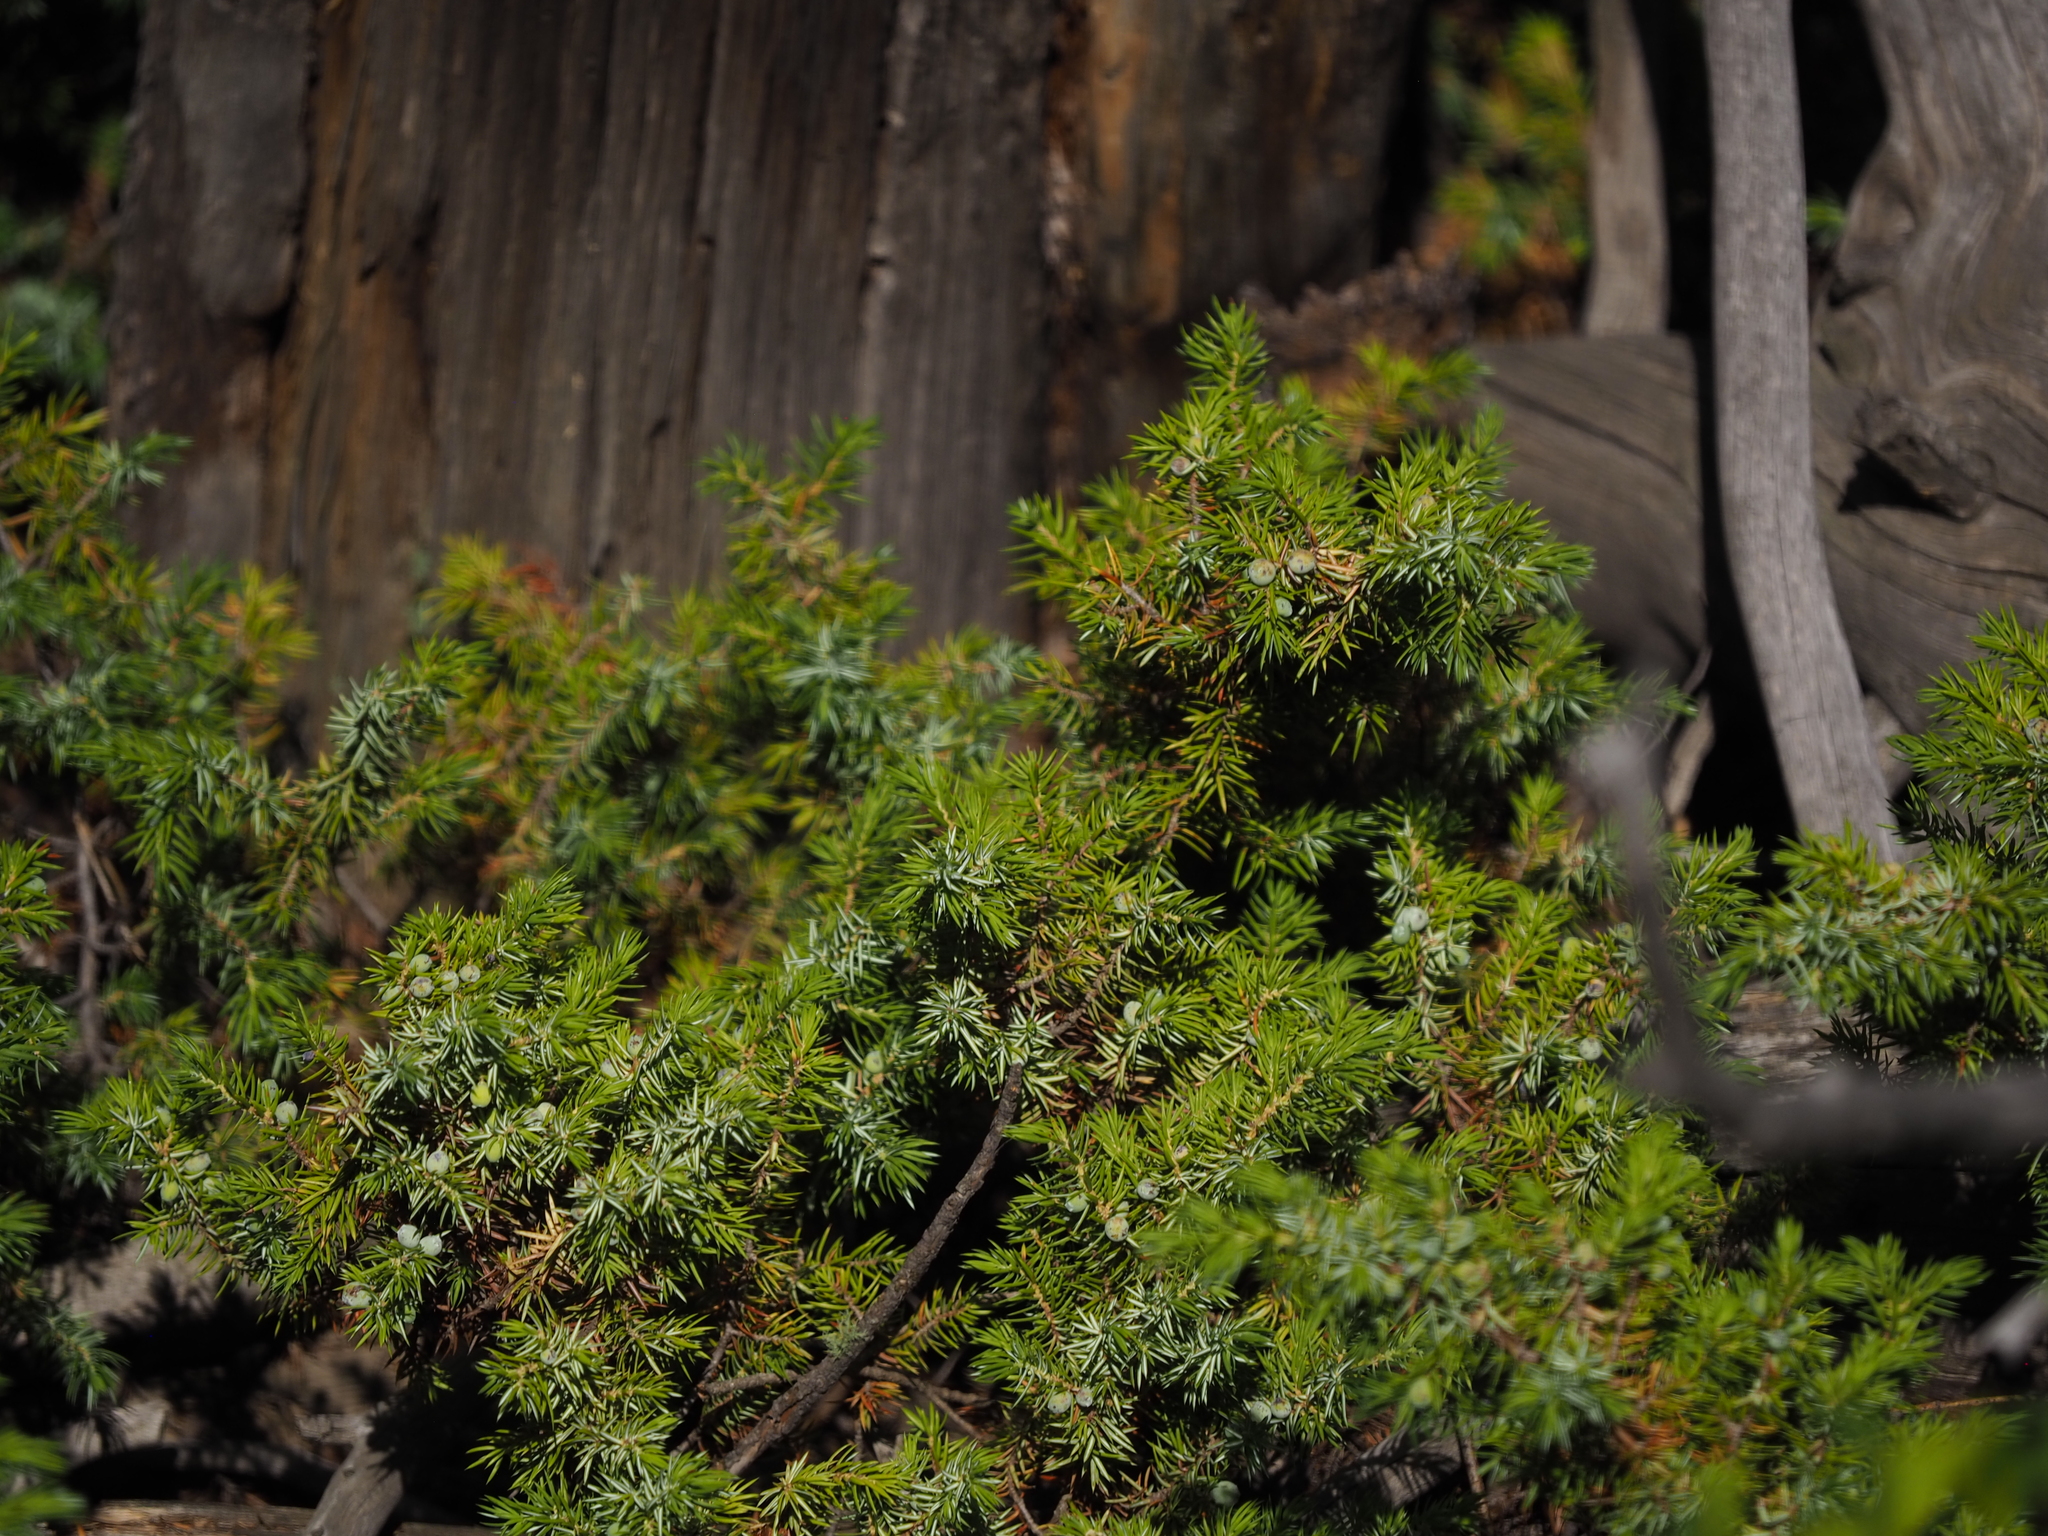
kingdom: Plantae
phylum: Tracheophyta
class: Pinopsida
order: Pinales
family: Cupressaceae
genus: Juniperus
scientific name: Juniperus communis
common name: Common juniper
